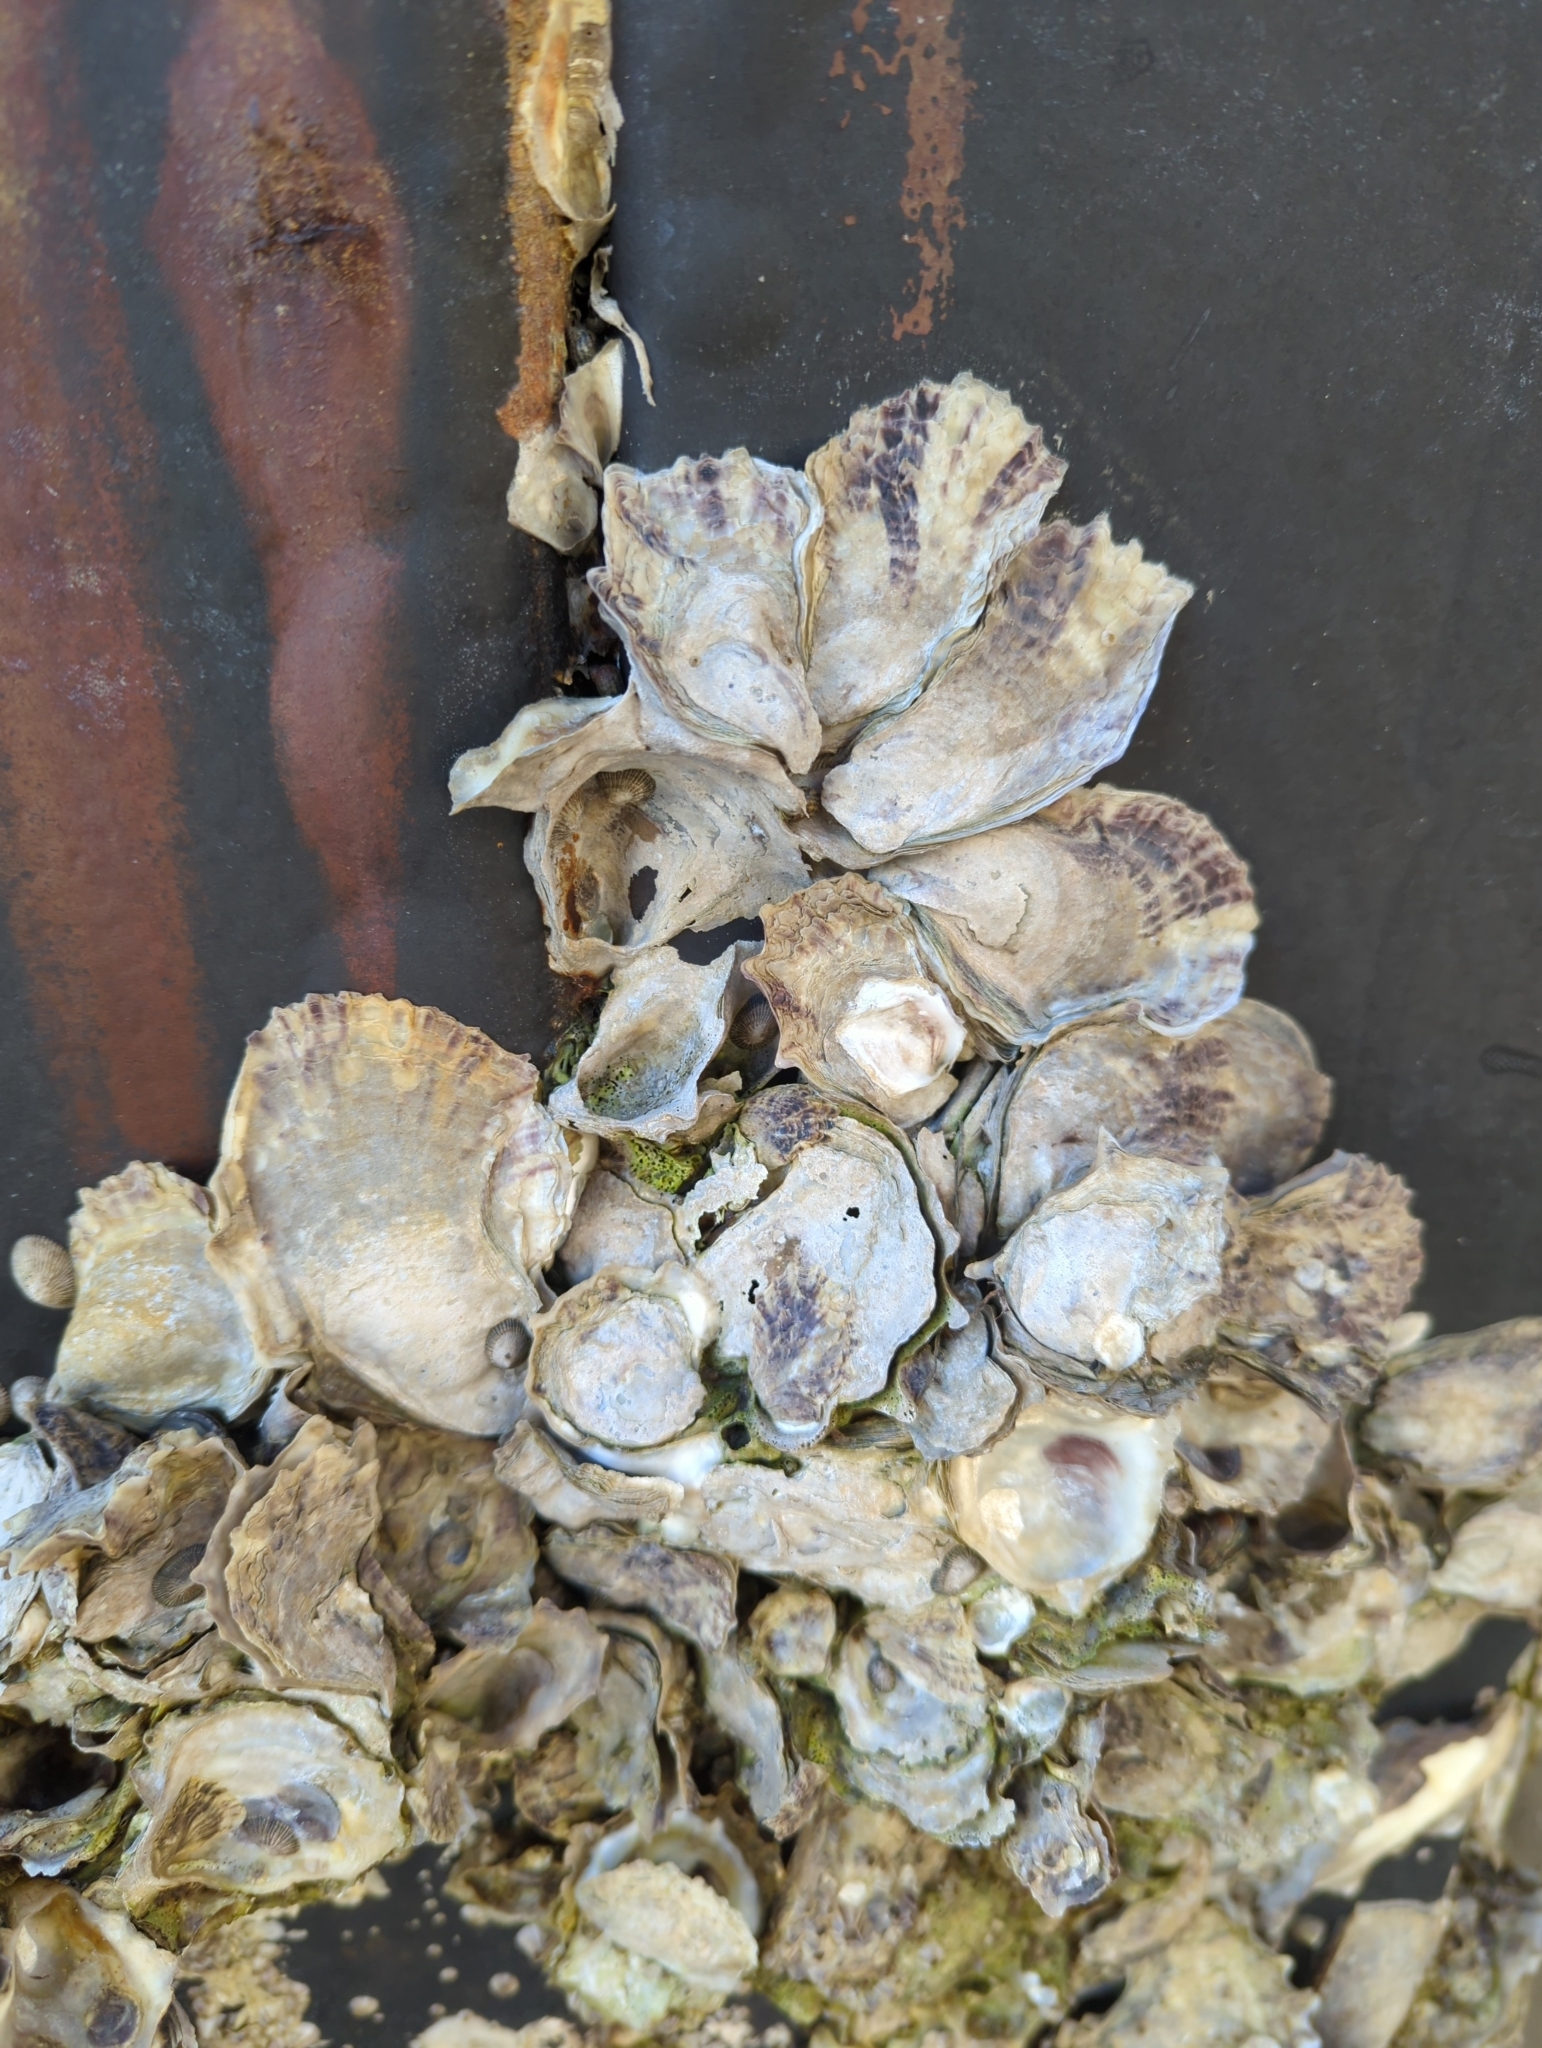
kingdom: Animalia
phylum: Mollusca
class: Bivalvia
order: Ostreida
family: Ostreidae
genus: Crassostrea
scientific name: Crassostrea virginica
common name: American oyster
